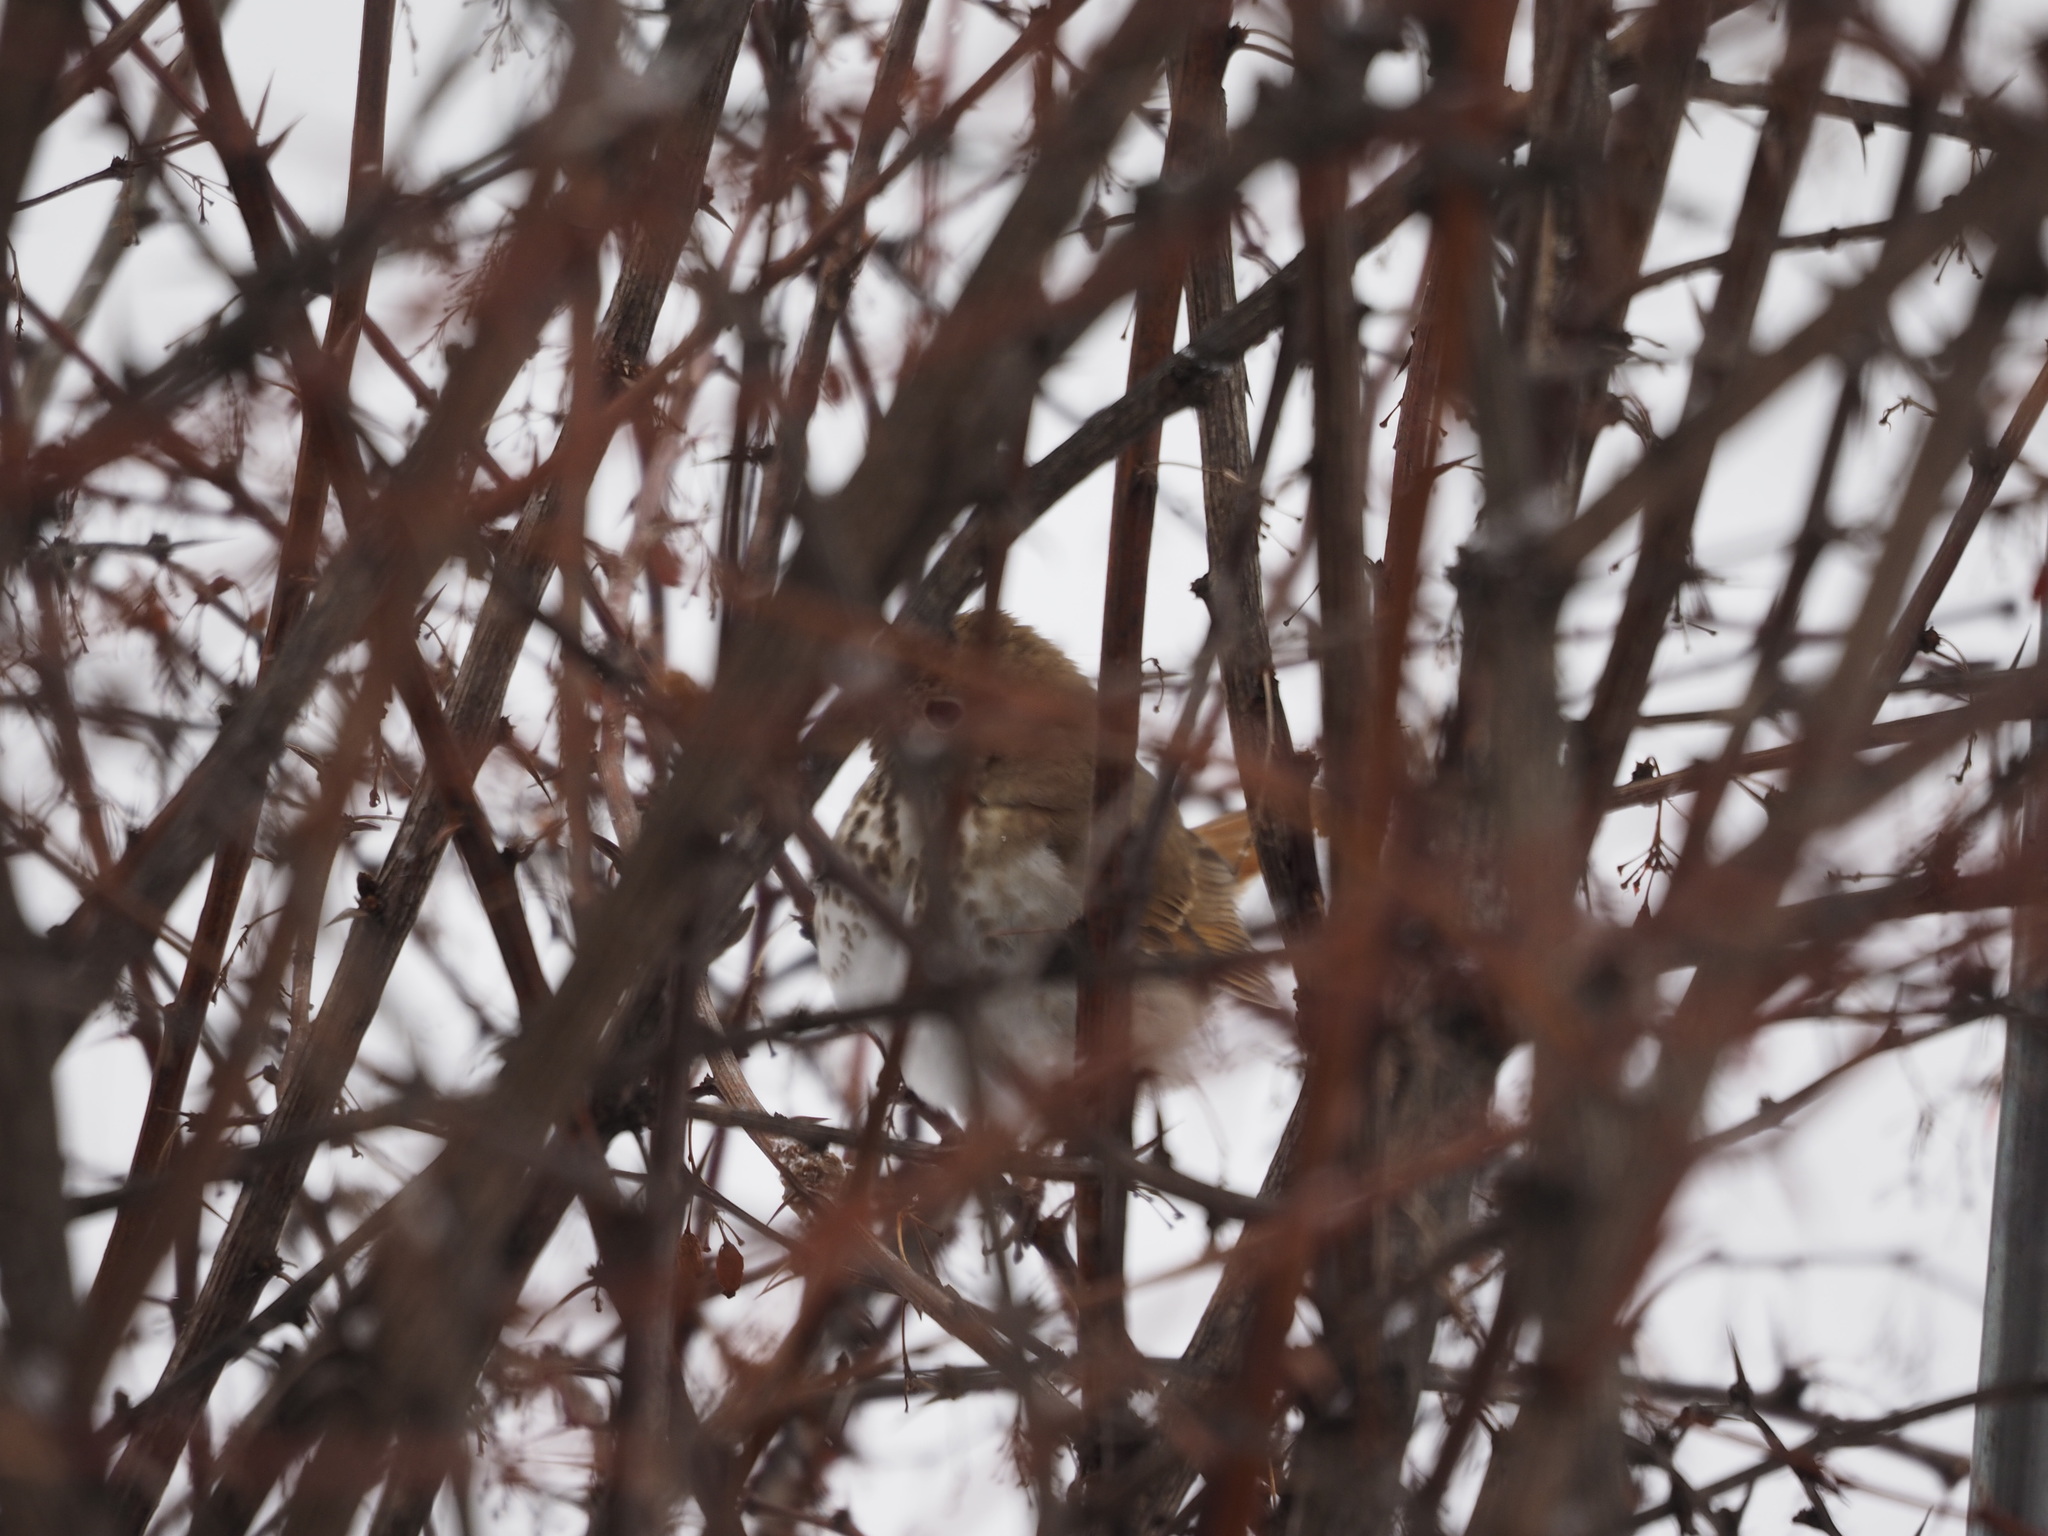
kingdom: Animalia
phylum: Chordata
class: Aves
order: Passeriformes
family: Passerellidae
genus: Passerella
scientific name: Passerella iliaca
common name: Fox sparrow
